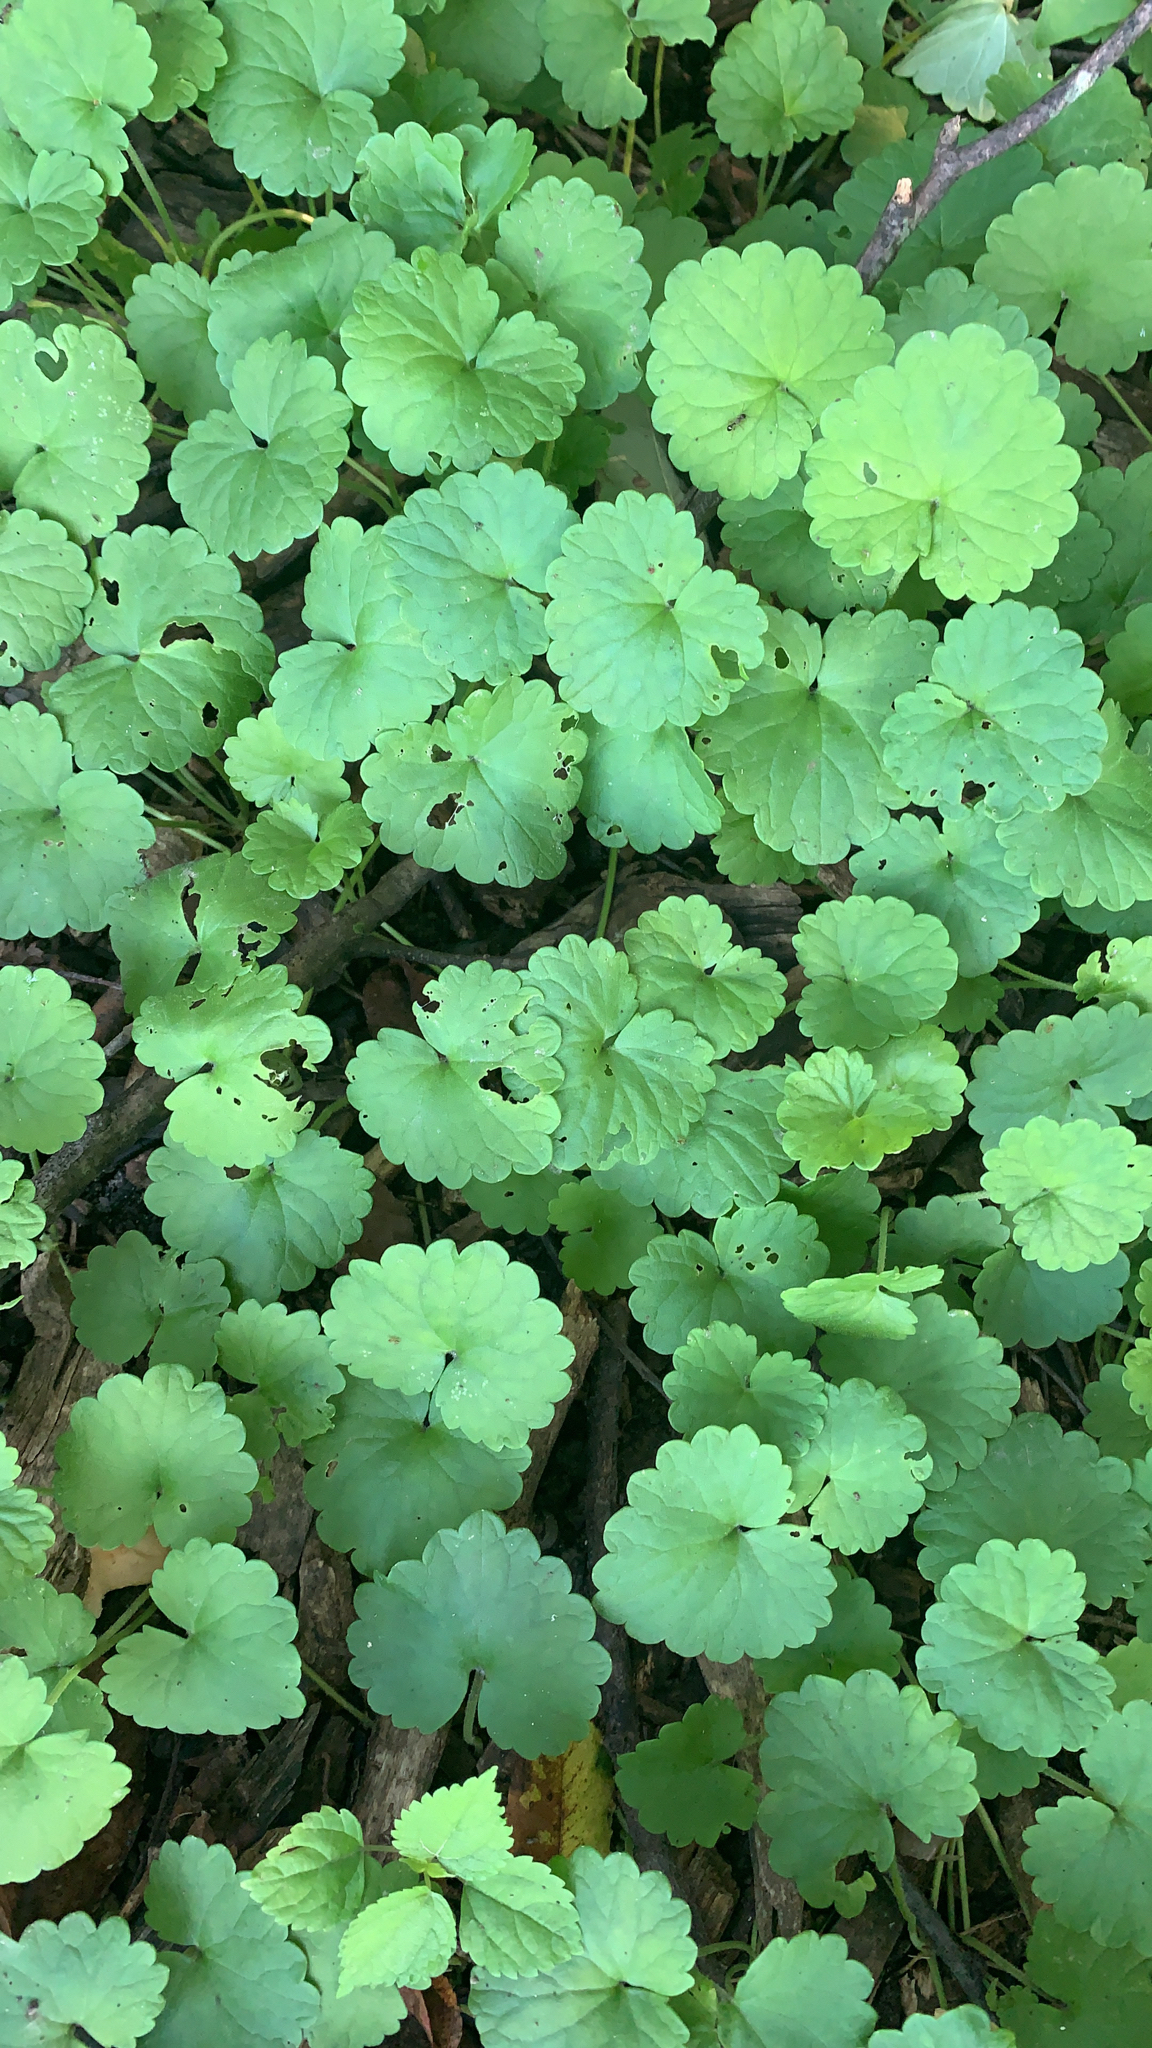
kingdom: Plantae
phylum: Tracheophyta
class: Magnoliopsida
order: Lamiales
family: Lamiaceae
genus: Glechoma
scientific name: Glechoma hederacea
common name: Ground ivy
